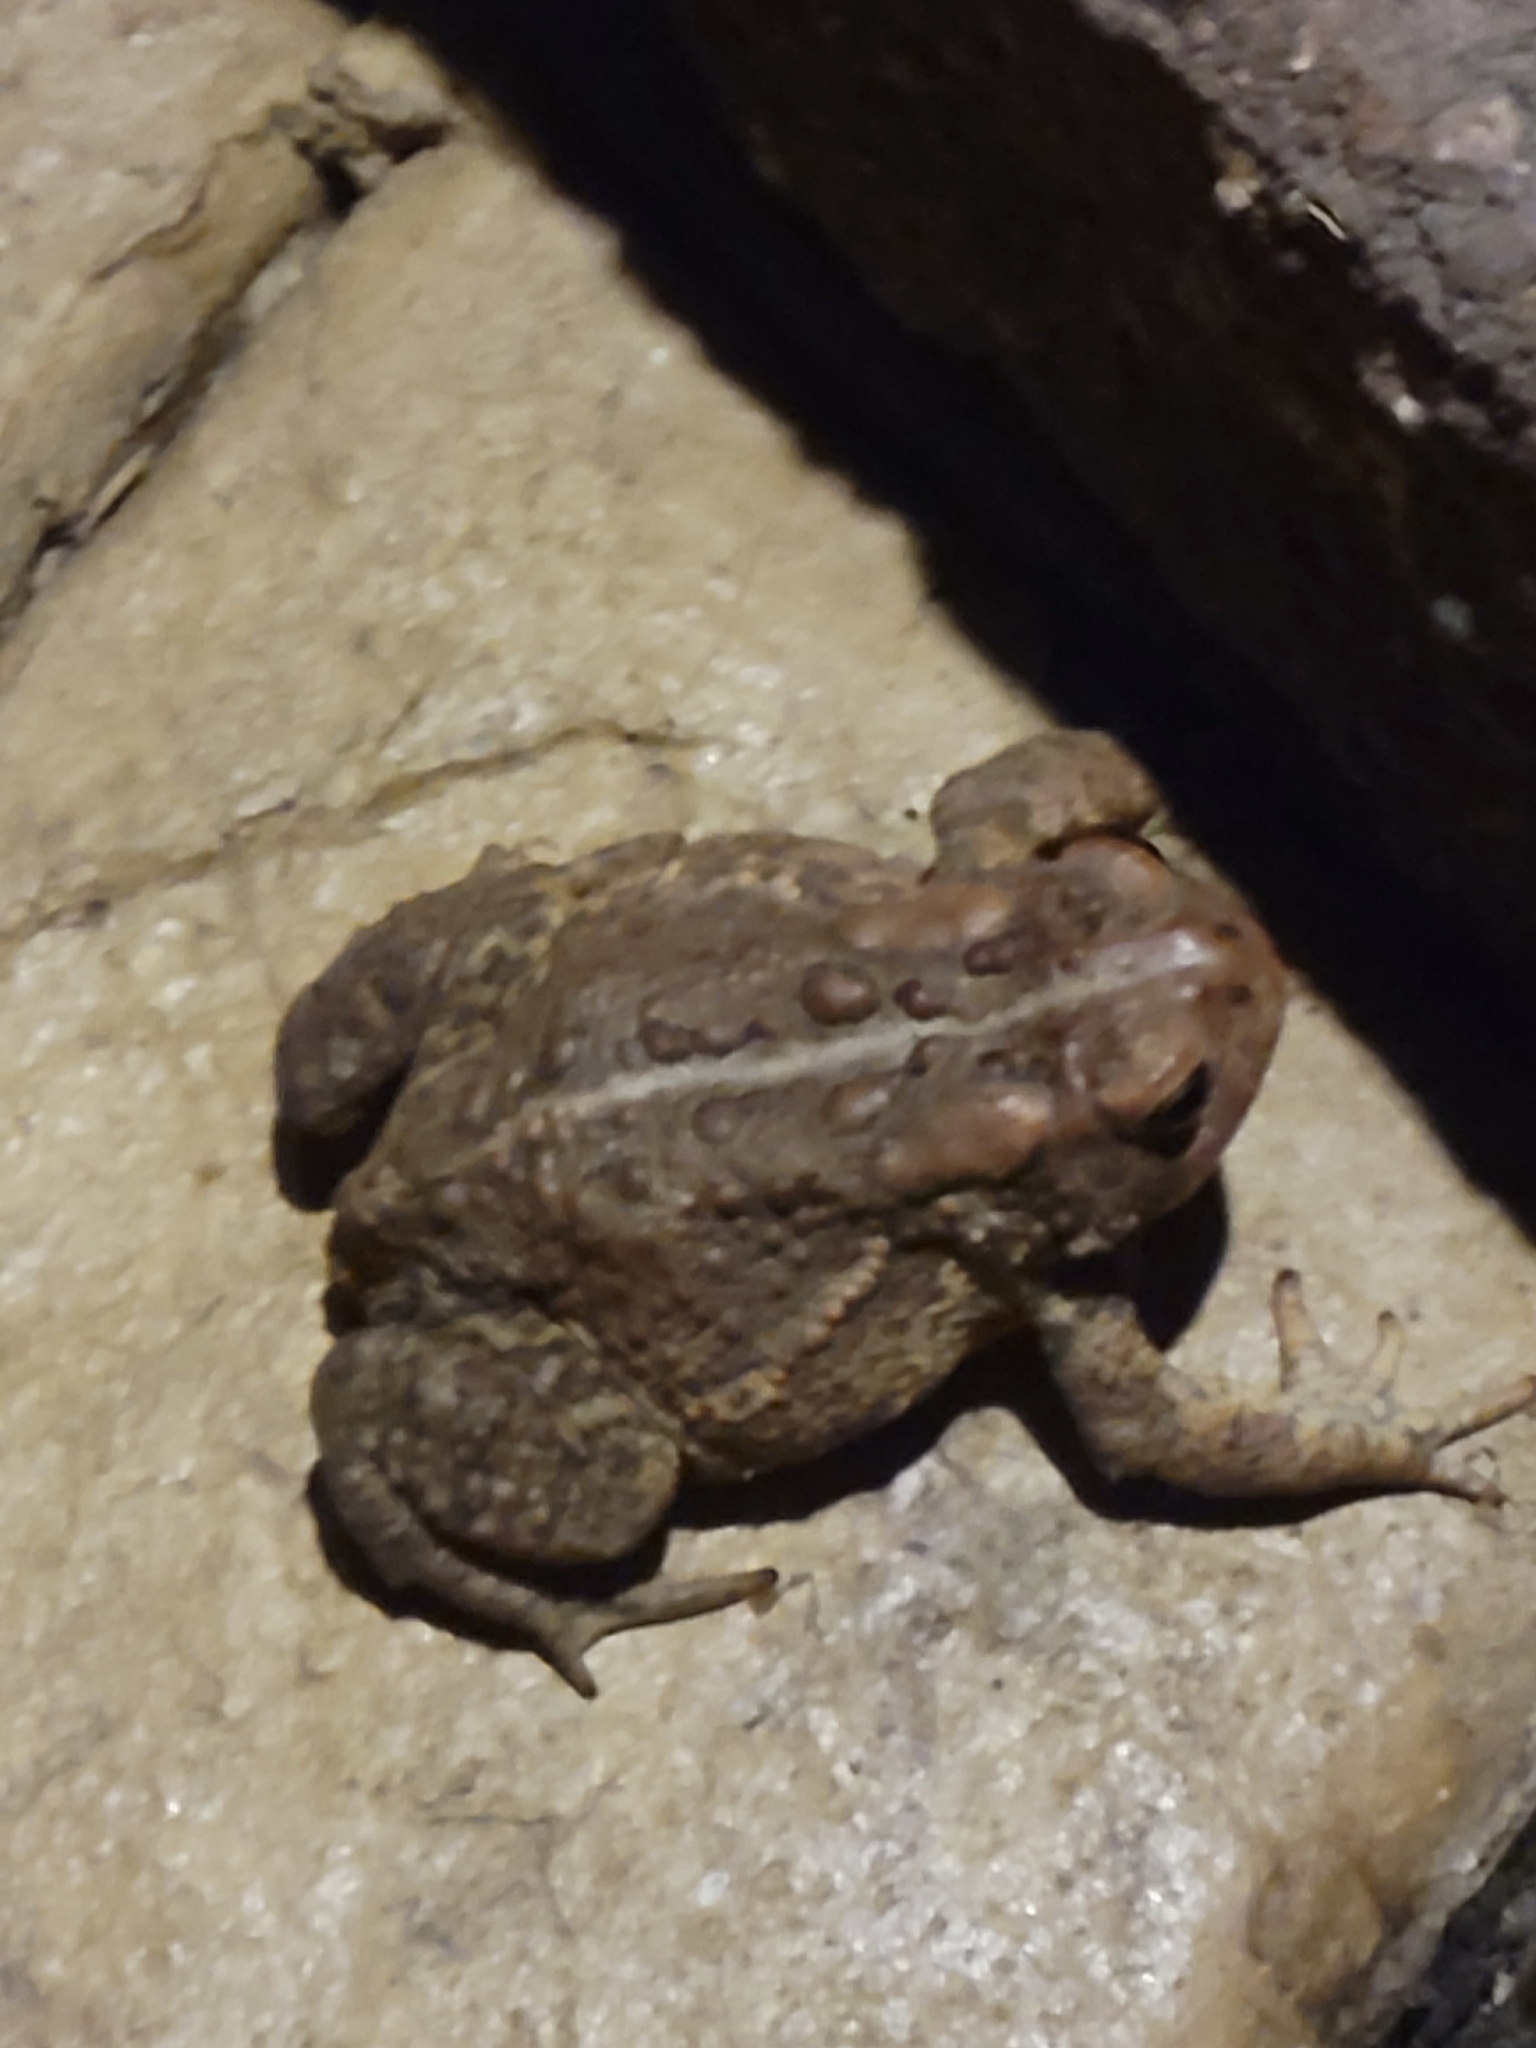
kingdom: Animalia
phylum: Chordata
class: Amphibia
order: Anura
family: Bufonidae
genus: Anaxyrus
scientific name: Anaxyrus americanus
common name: American toad
